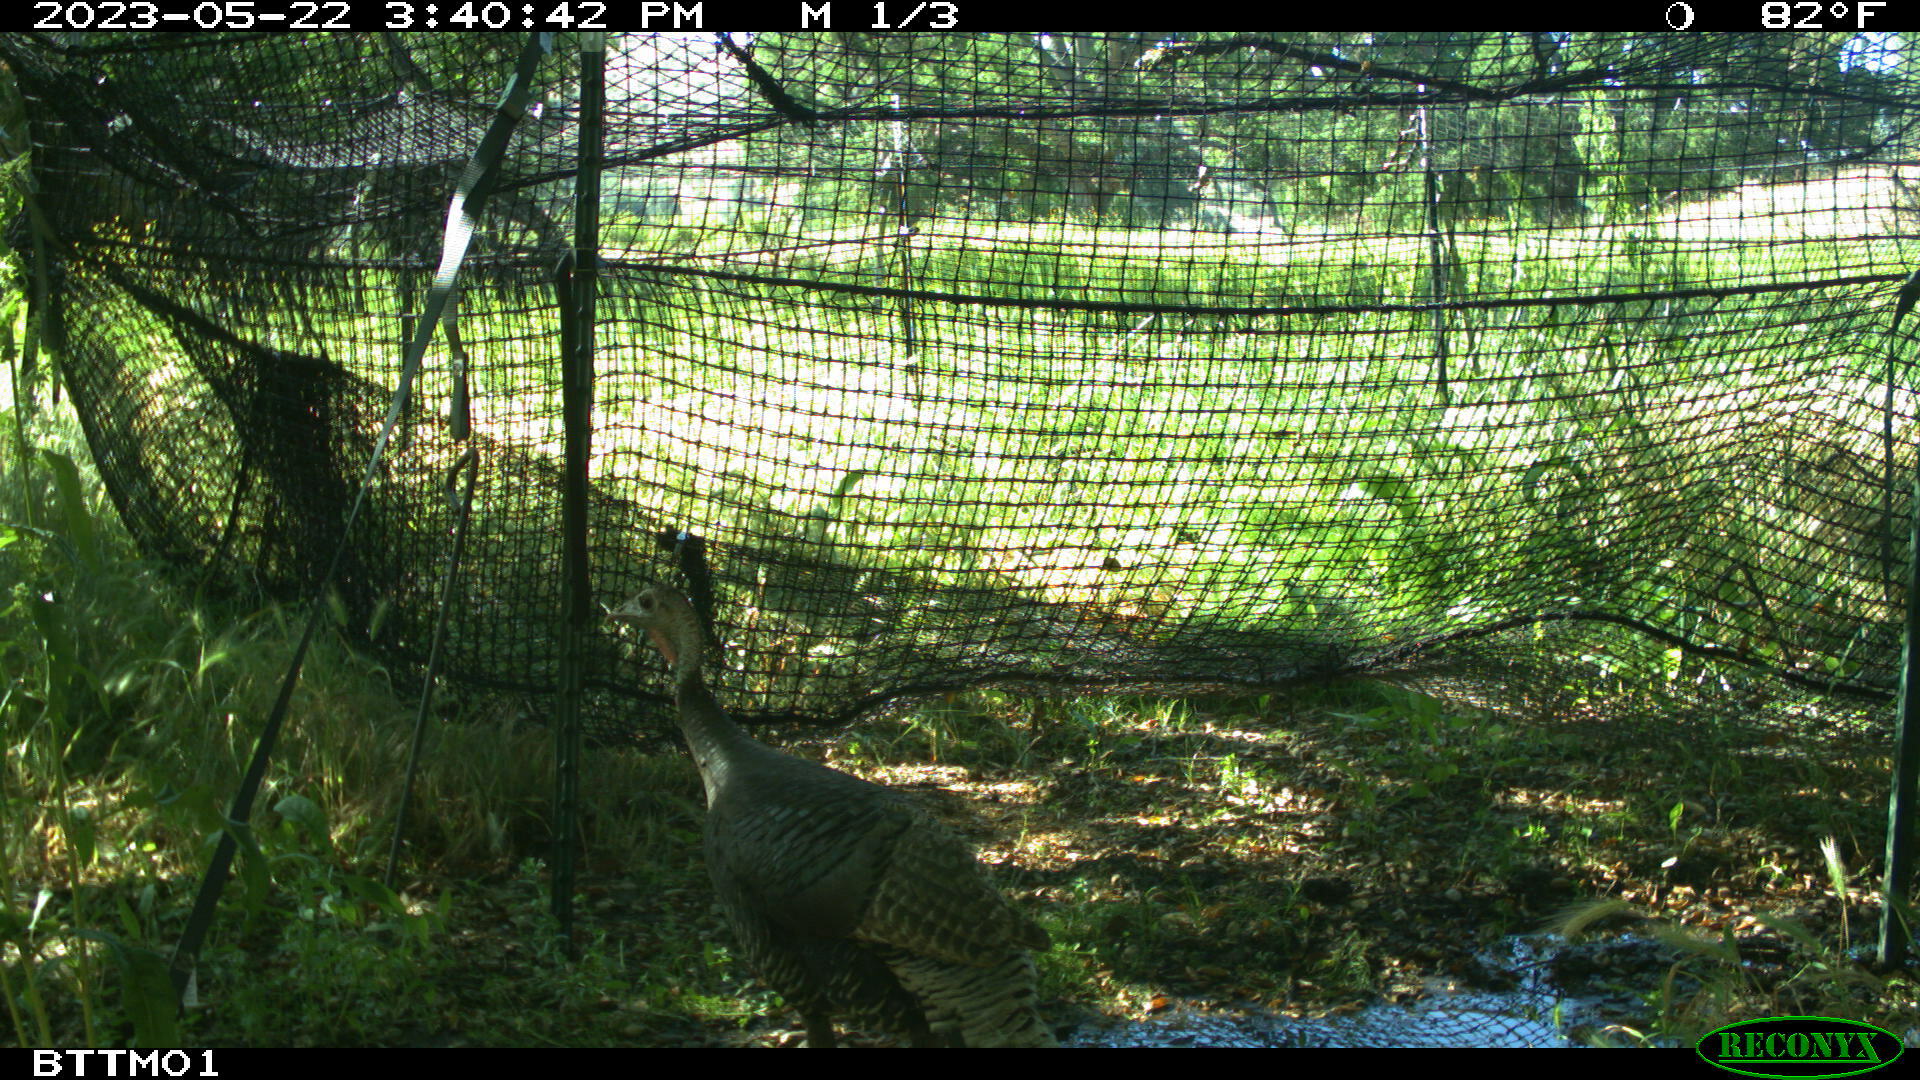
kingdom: Animalia
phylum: Chordata
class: Aves
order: Galliformes
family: Phasianidae
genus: Meleagris
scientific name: Meleagris gallopavo
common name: Wild turkey
